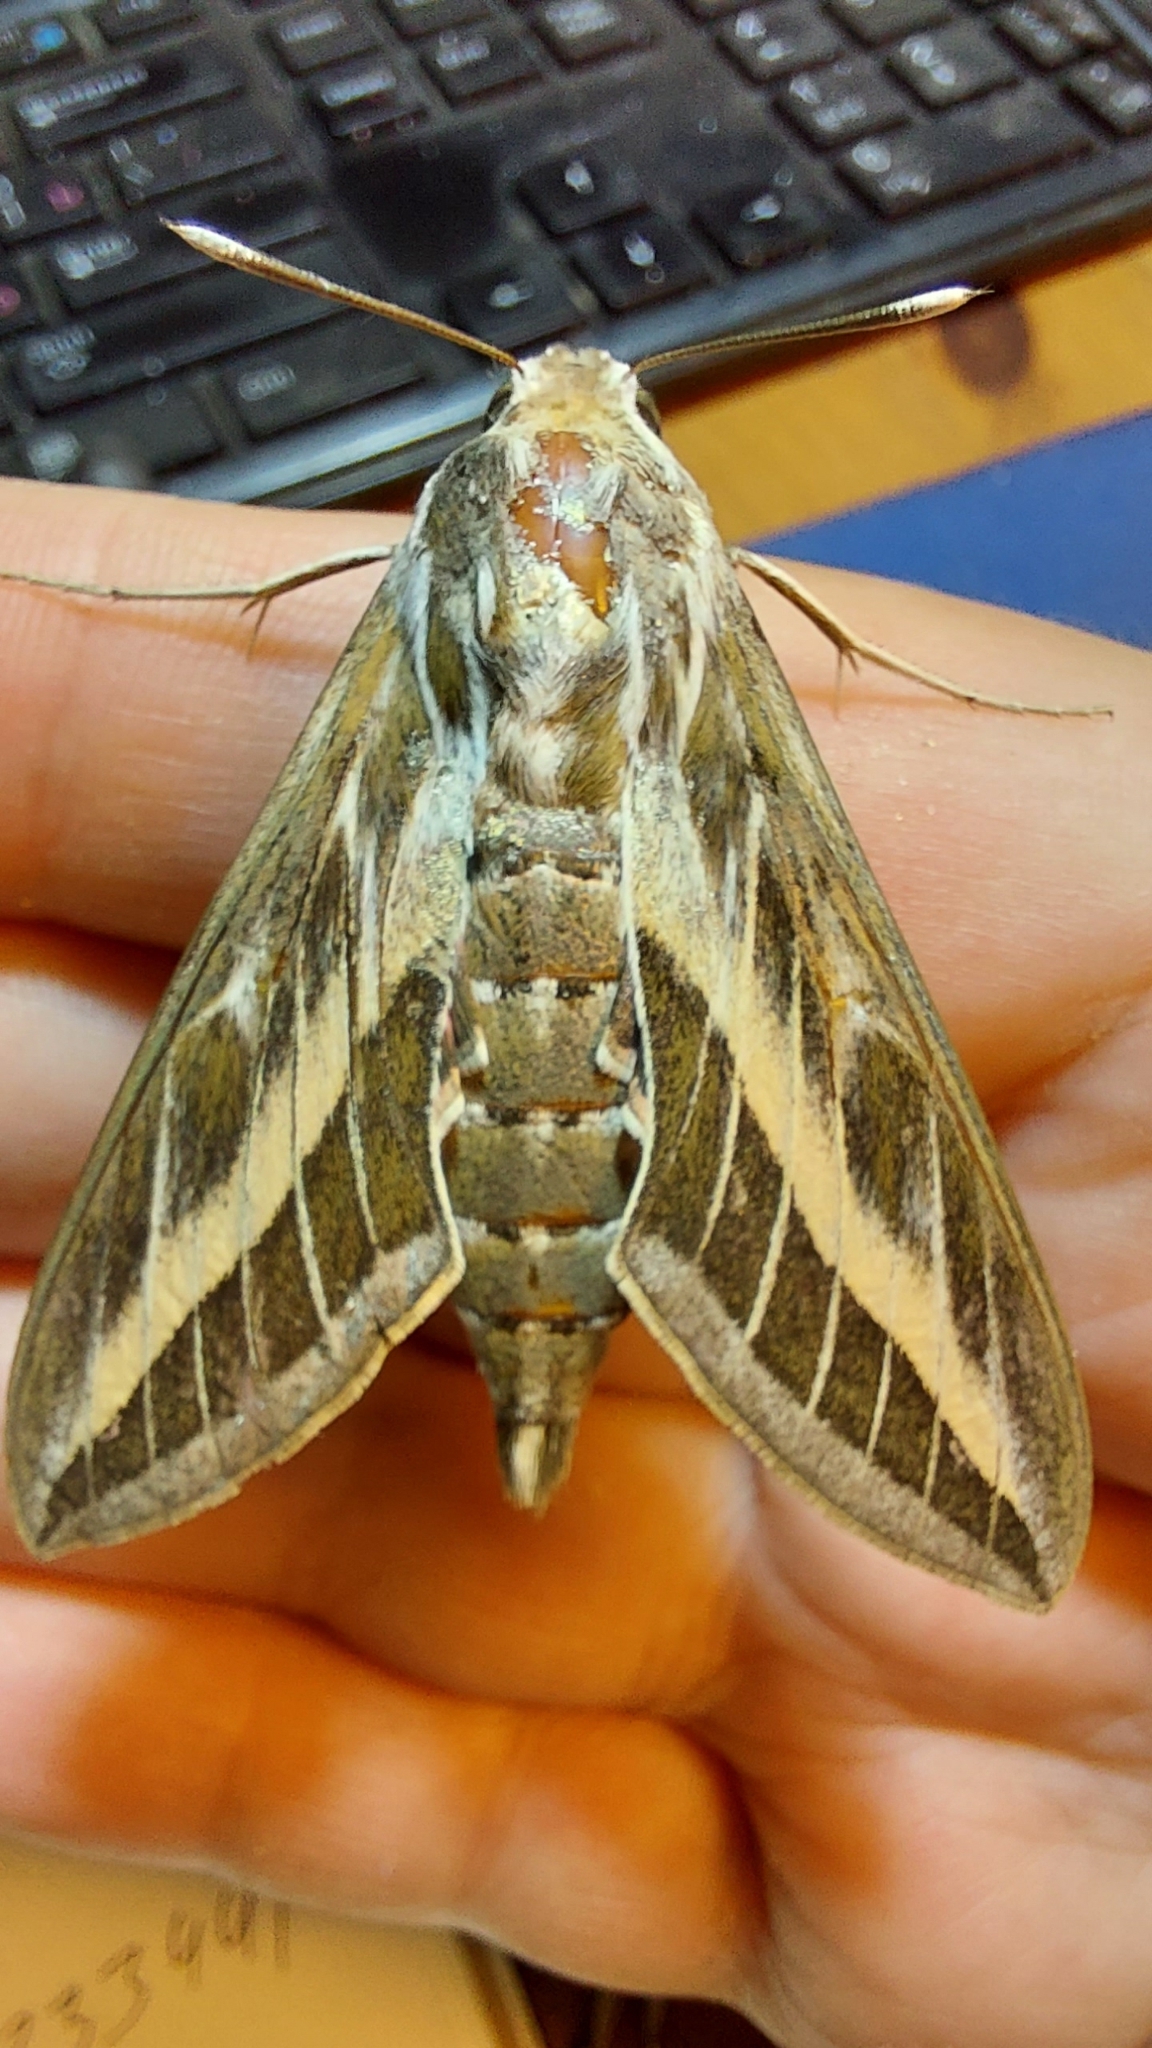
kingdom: Animalia
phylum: Arthropoda
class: Insecta
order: Lepidoptera
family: Sphingidae
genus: Hyles
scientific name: Hyles livornica
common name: Striped hawk-moth
